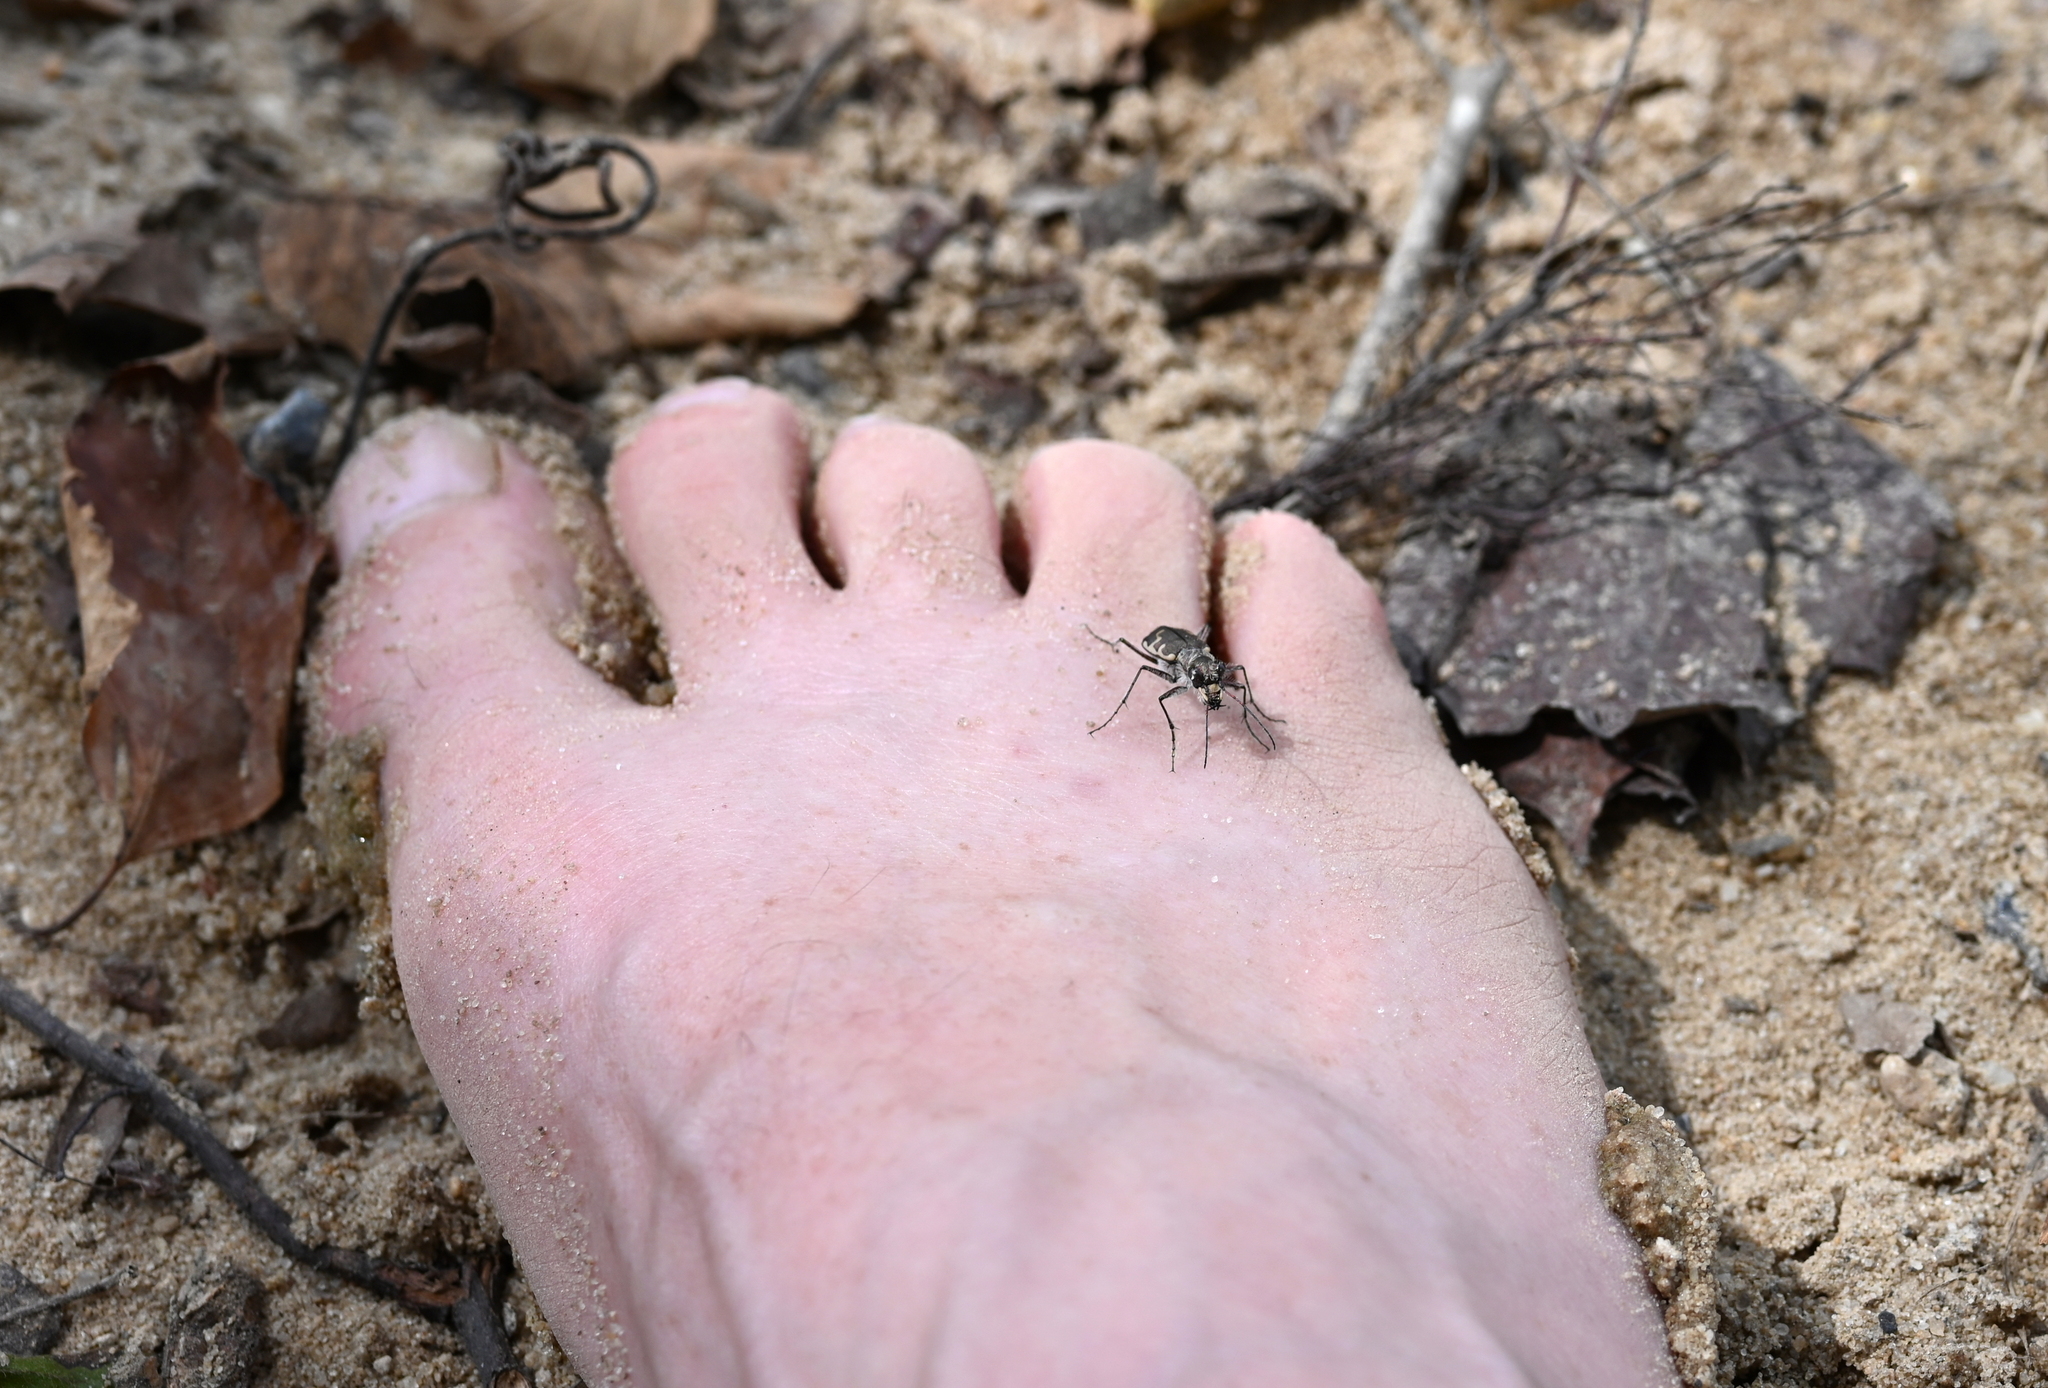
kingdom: Animalia
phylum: Arthropoda
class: Insecta
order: Coleoptera
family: Carabidae
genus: Cicindela
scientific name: Cicindela repanda
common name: Bronzed tiger beetle
